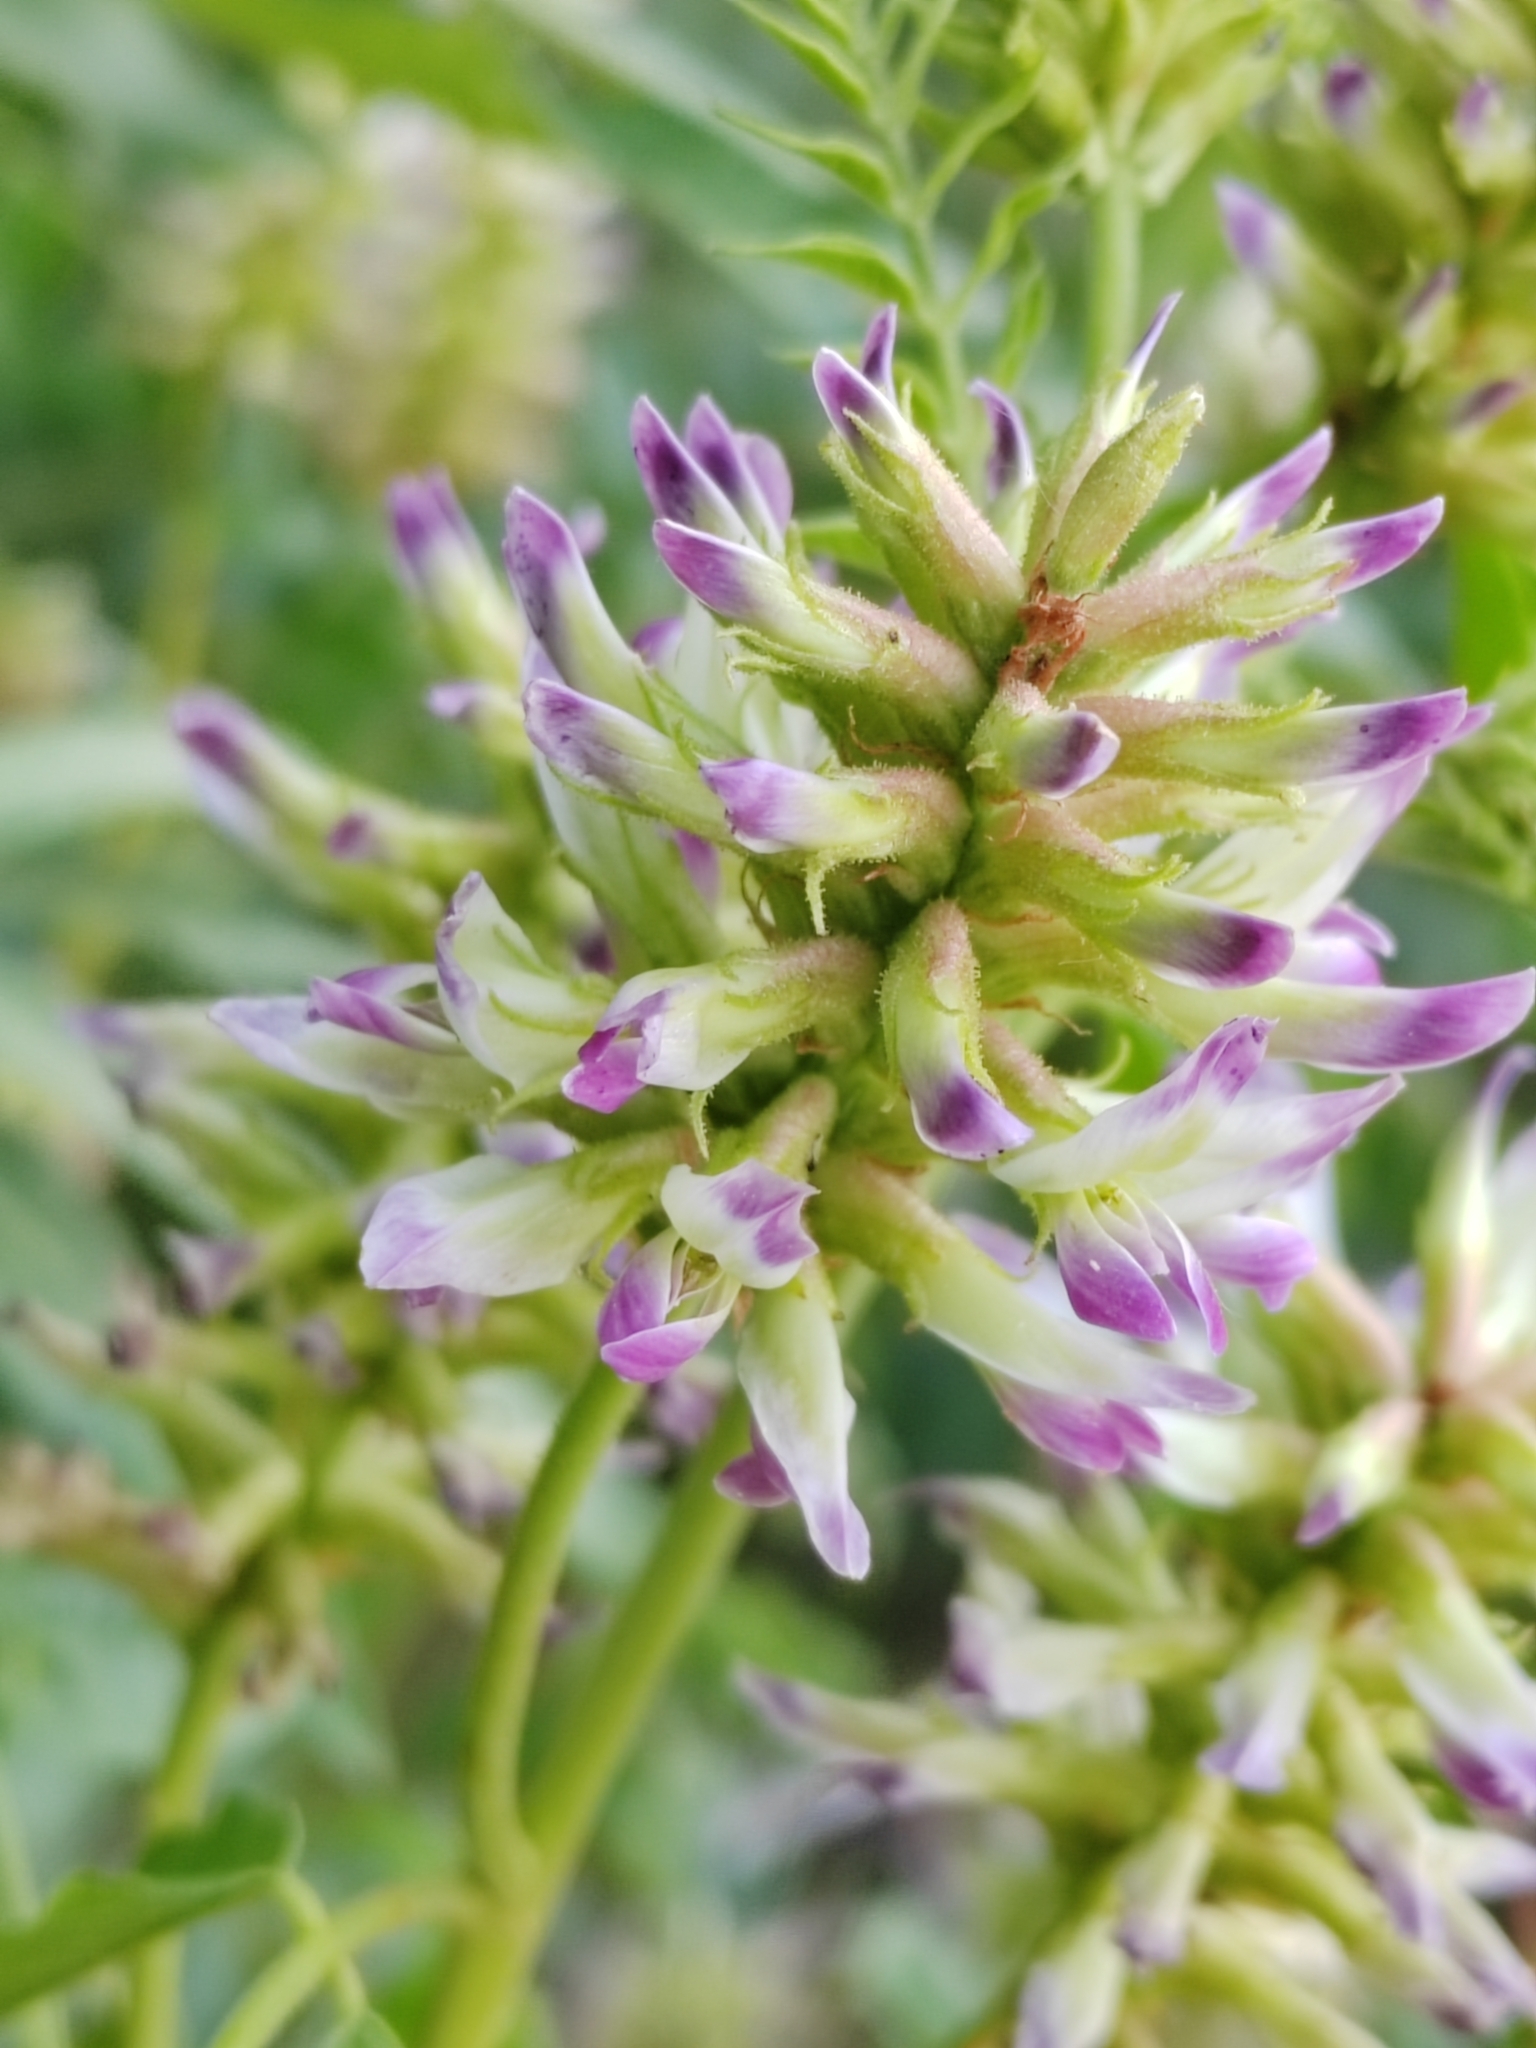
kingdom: Plantae
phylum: Tracheophyta
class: Magnoliopsida
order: Fabales
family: Fabaceae
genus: Glycyrrhiza
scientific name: Glycyrrhiza uralensis
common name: Chinese licorice
